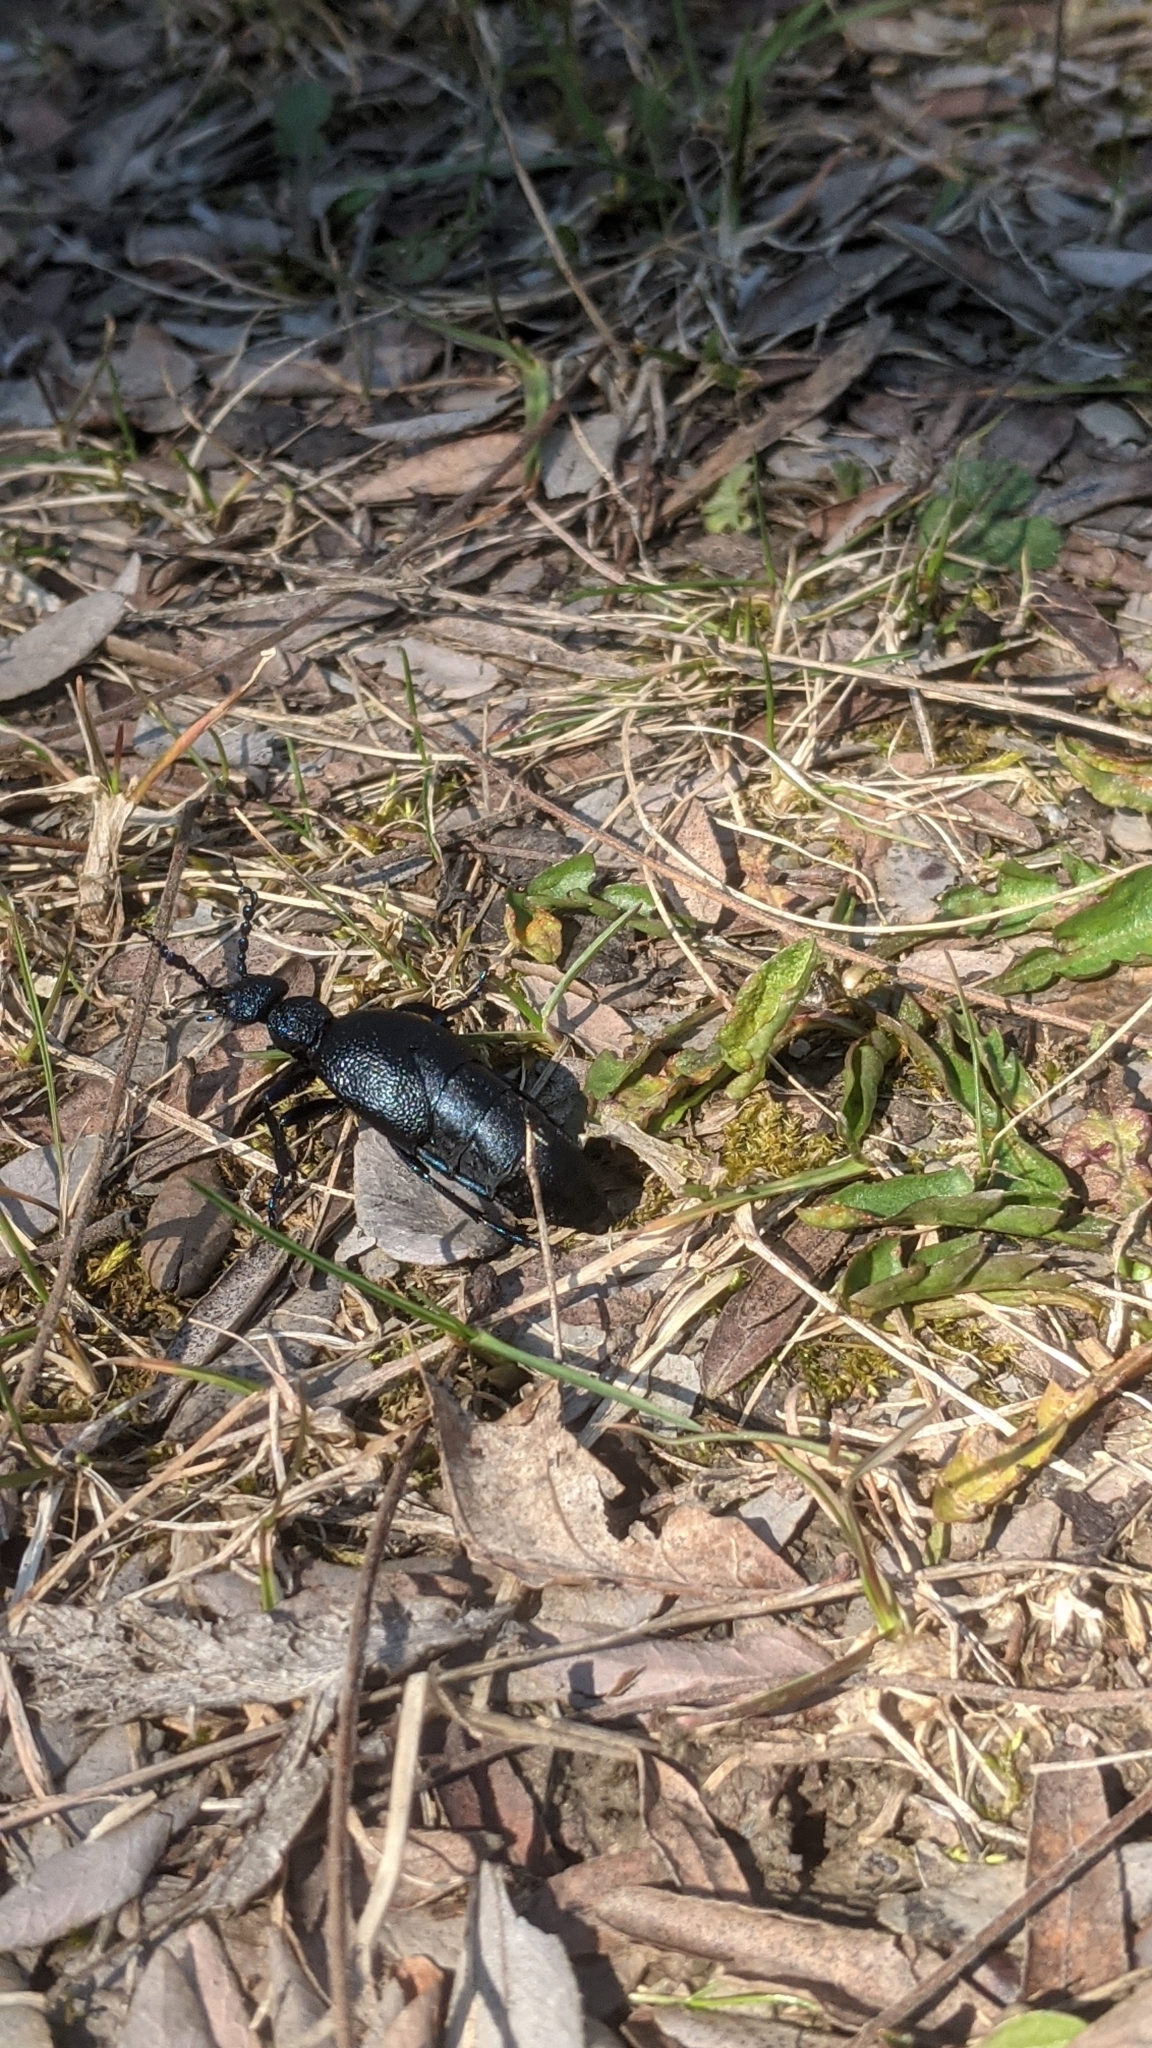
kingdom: Animalia
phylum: Arthropoda
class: Insecta
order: Coleoptera
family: Meloidae
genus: Meloe
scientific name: Meloe proscarabaeus
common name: Black oil-beetle
